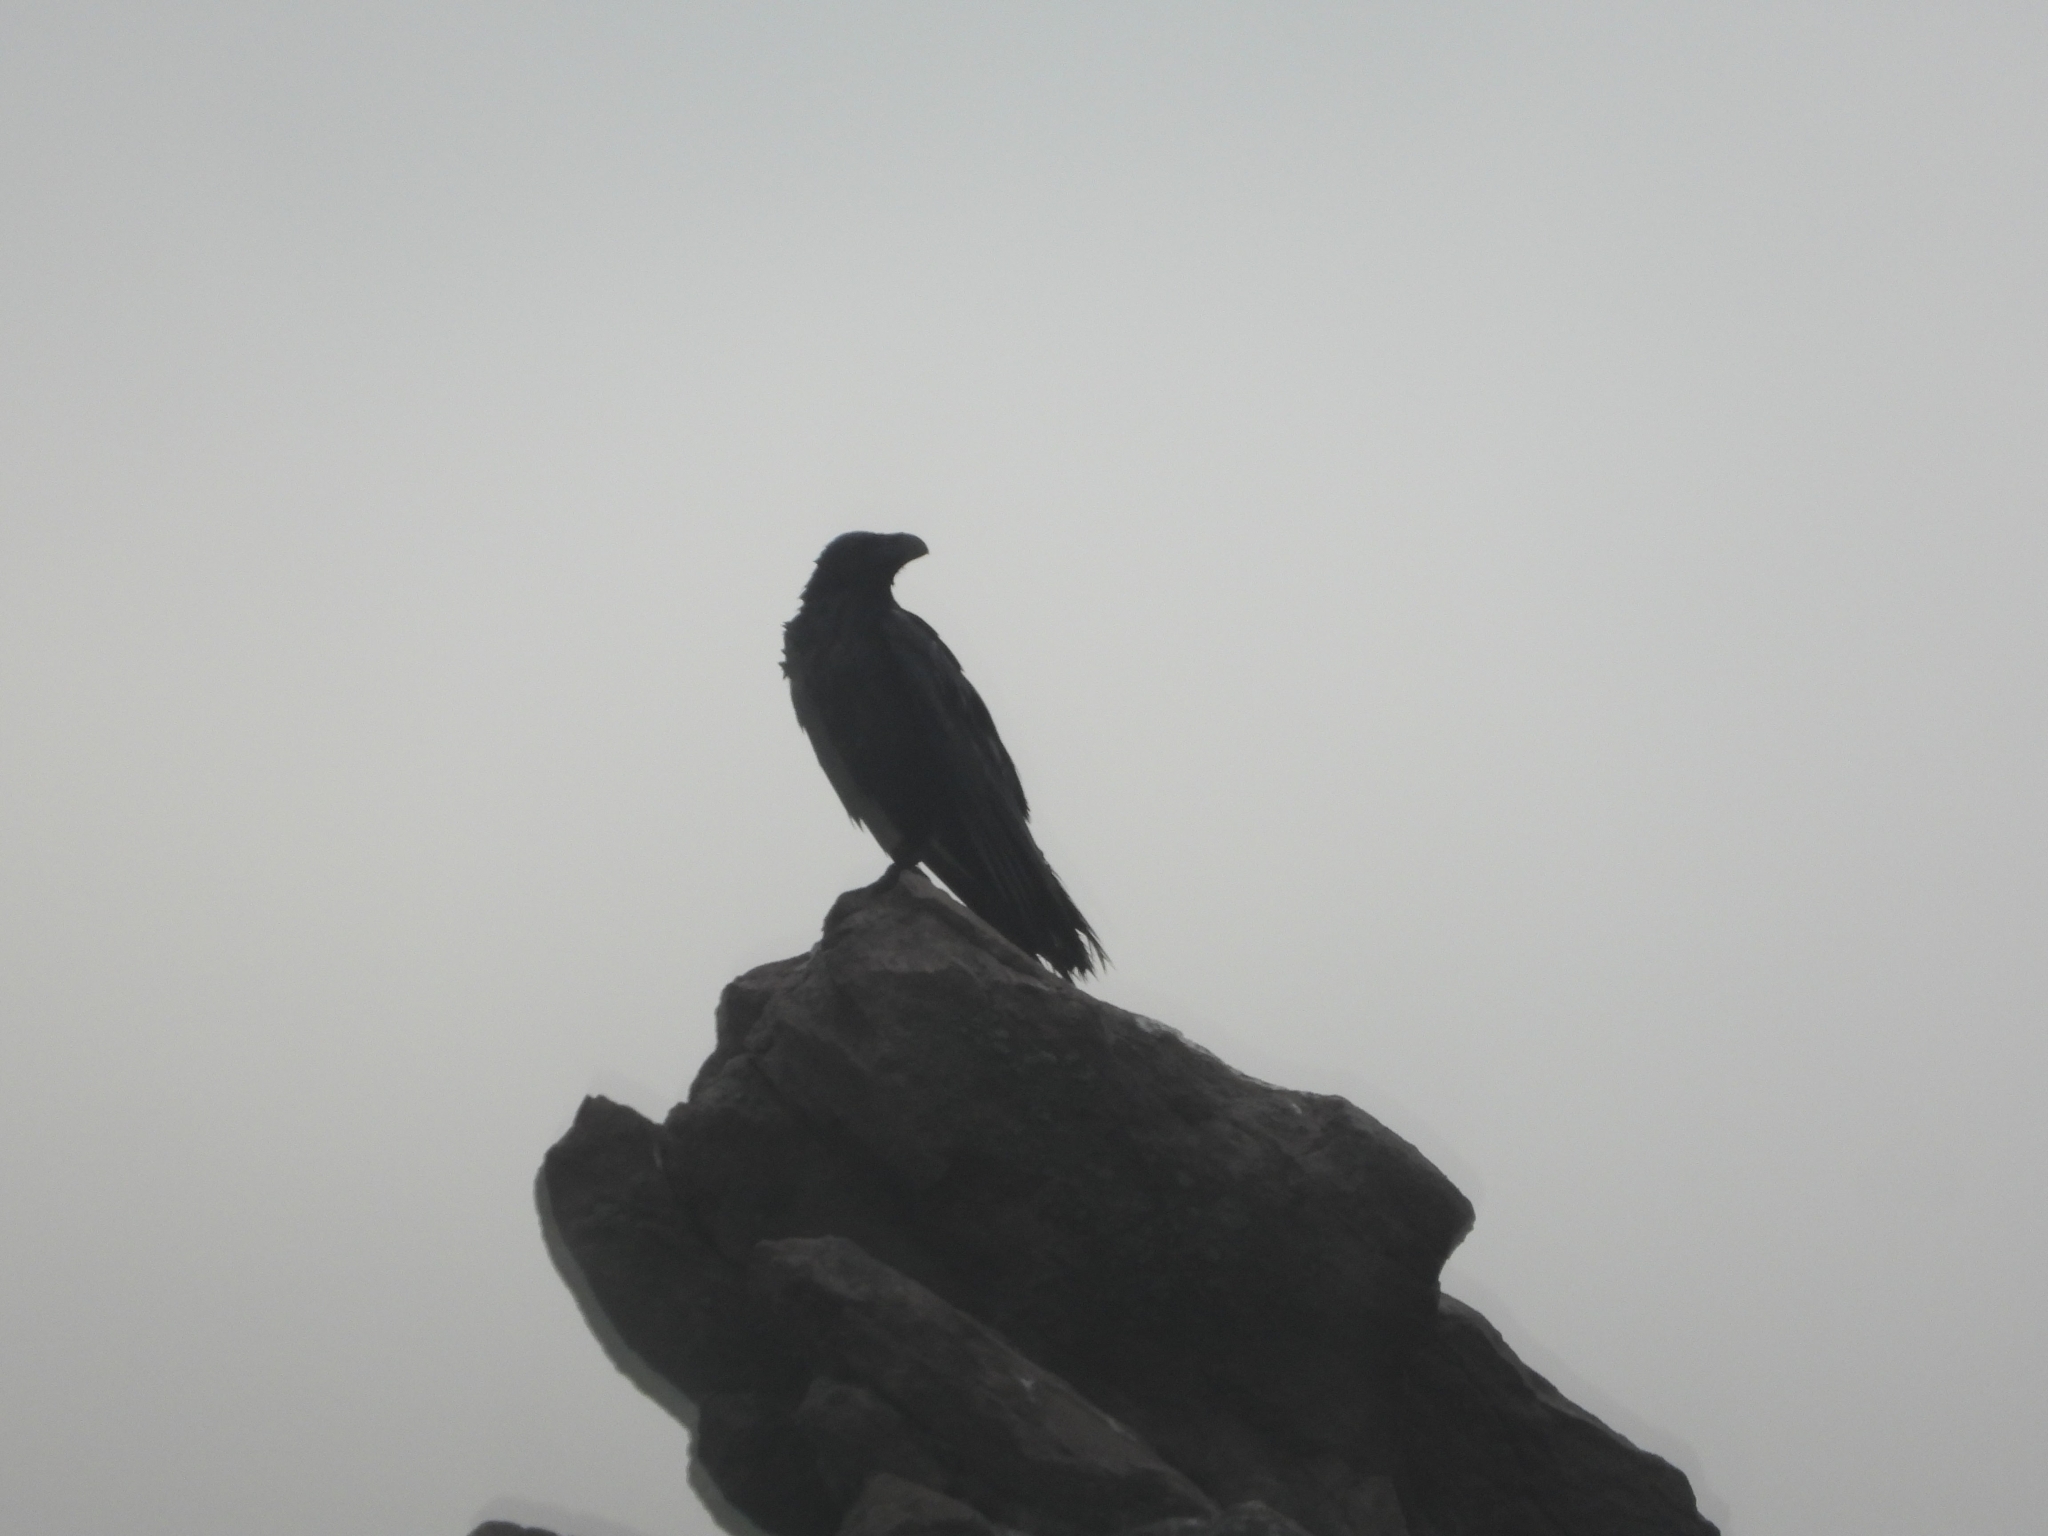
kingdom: Animalia
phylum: Chordata
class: Aves
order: Passeriformes
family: Corvidae
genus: Corvus
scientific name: Corvus corax
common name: Common raven
